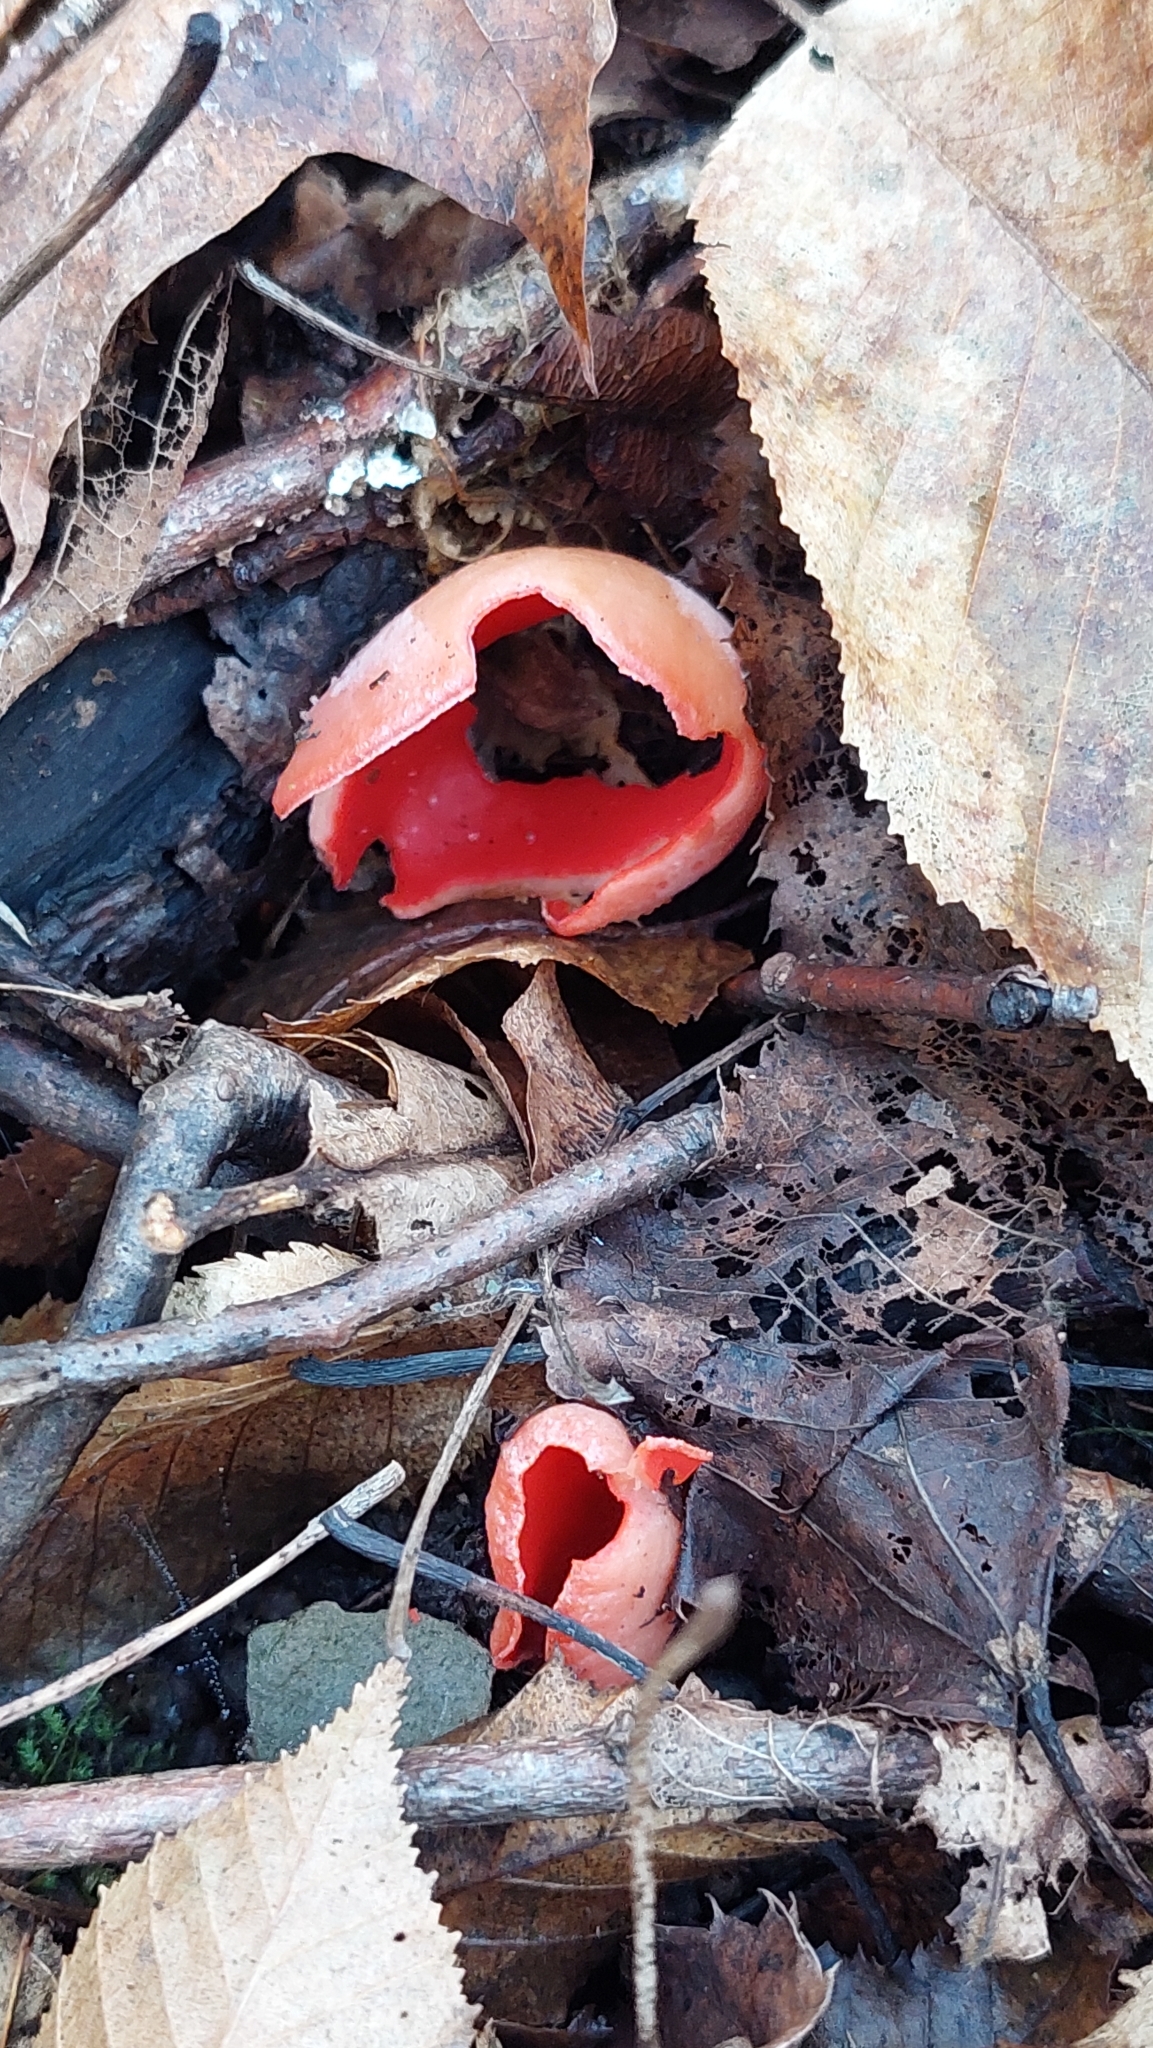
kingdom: Fungi
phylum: Ascomycota
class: Pezizomycetes
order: Pezizales
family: Sarcoscyphaceae
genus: Sarcoscypha
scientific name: Sarcoscypha
